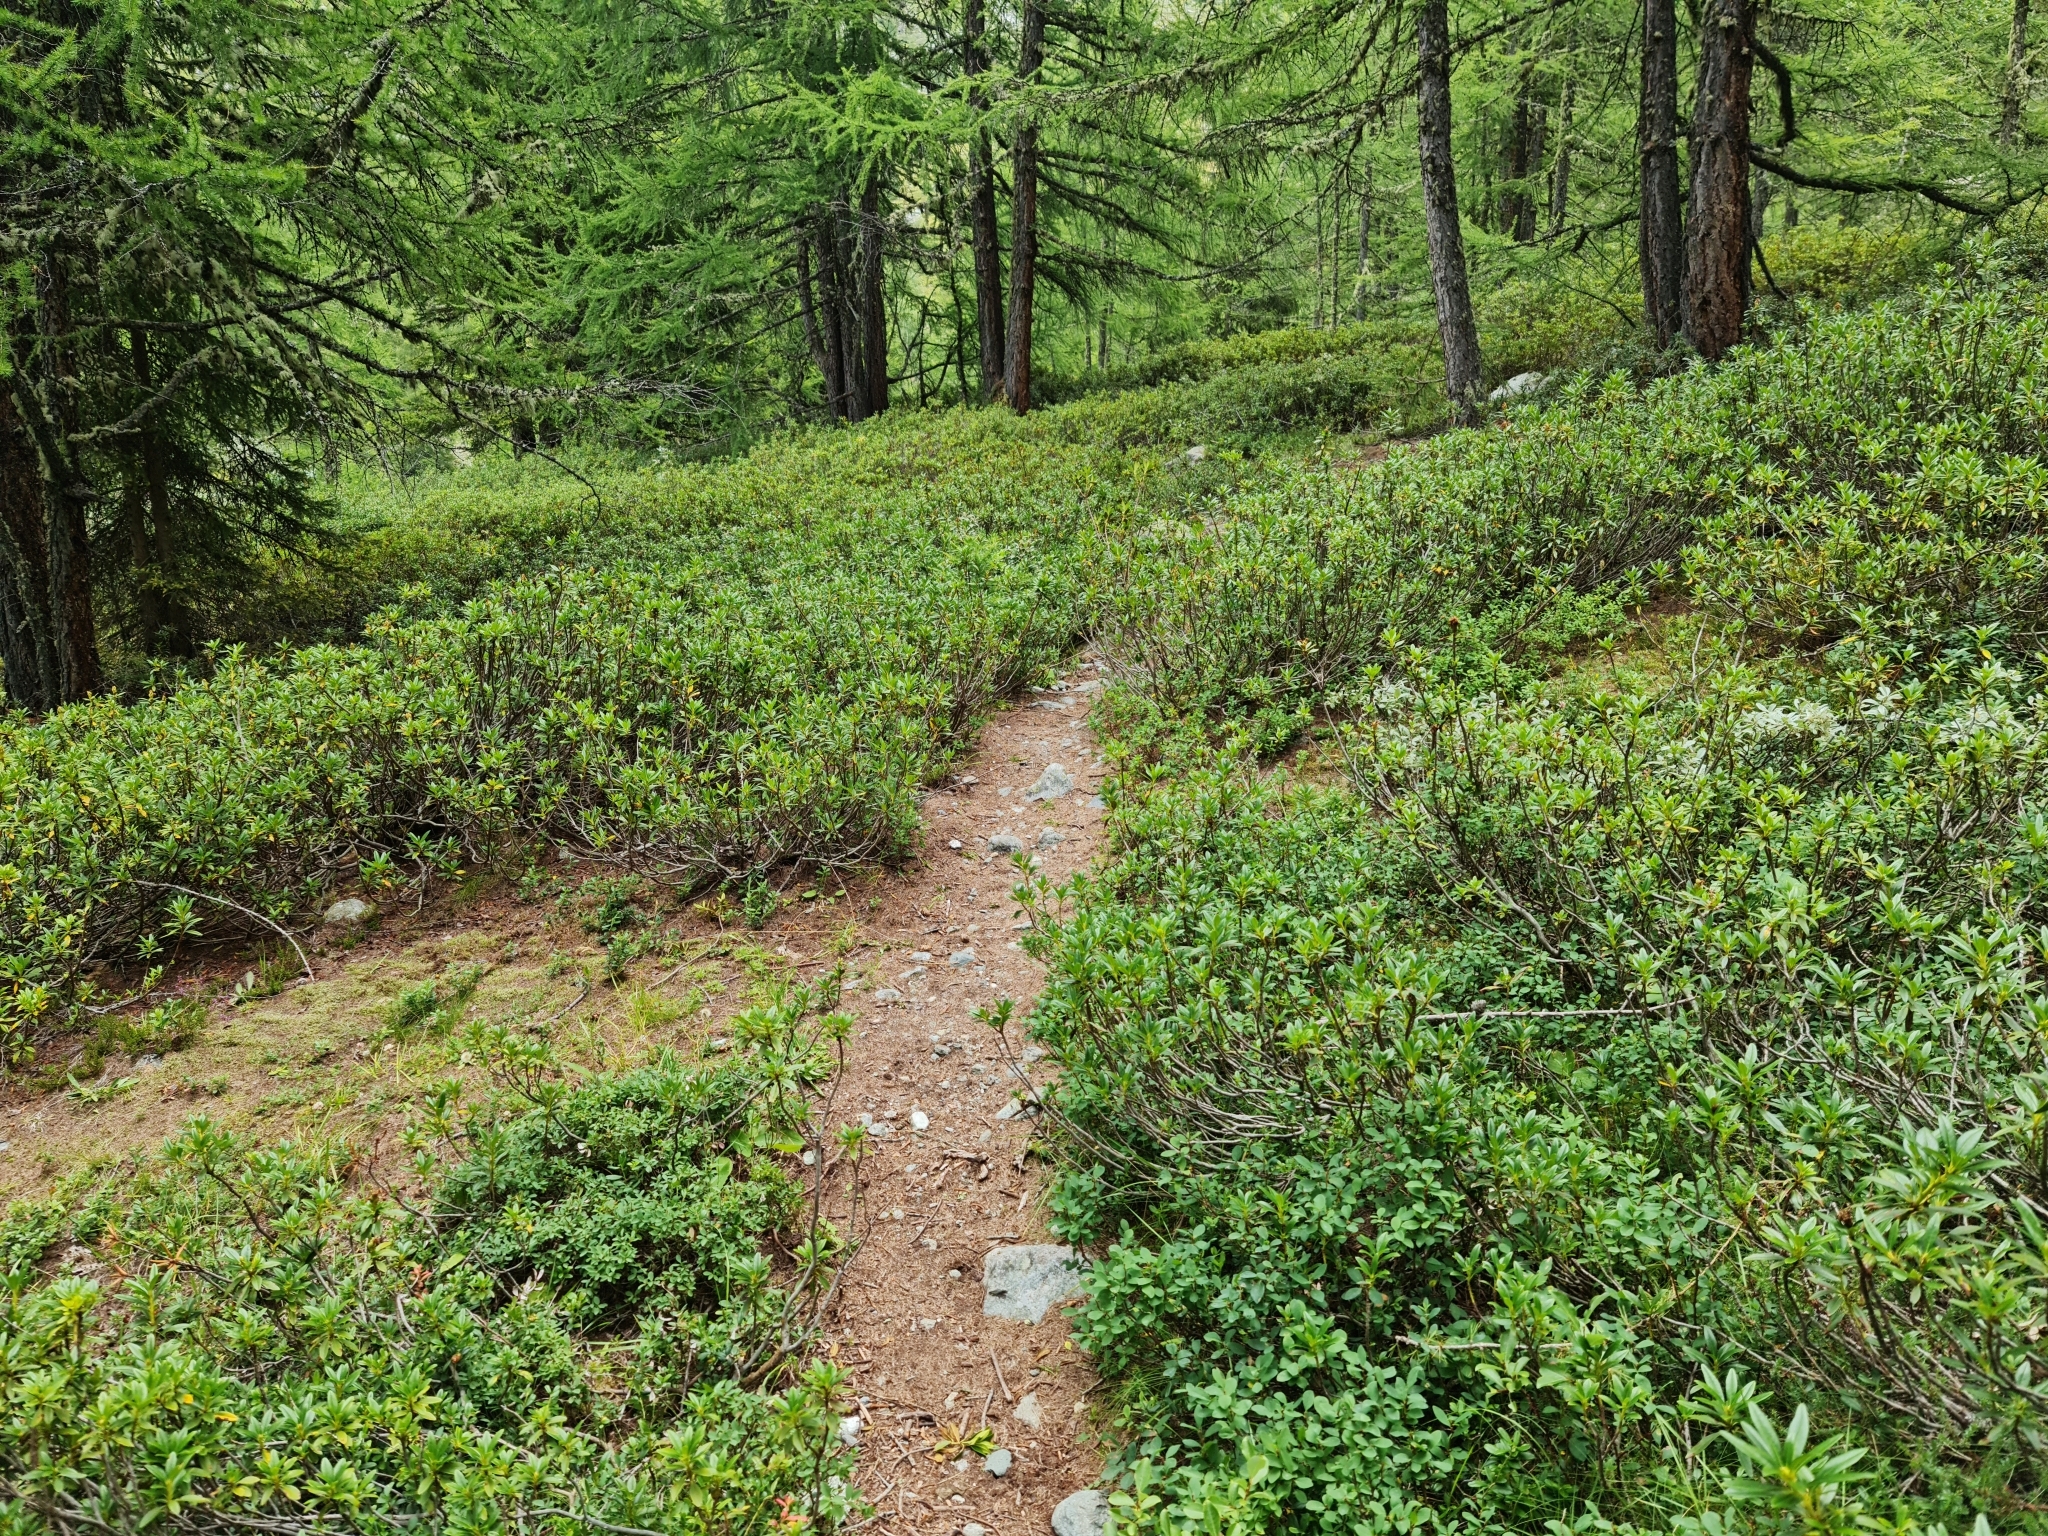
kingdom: Plantae
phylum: Tracheophyta
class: Magnoliopsida
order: Ericales
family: Ericaceae
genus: Rhododendron
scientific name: Rhododendron ferrugineum
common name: Alpenrose
